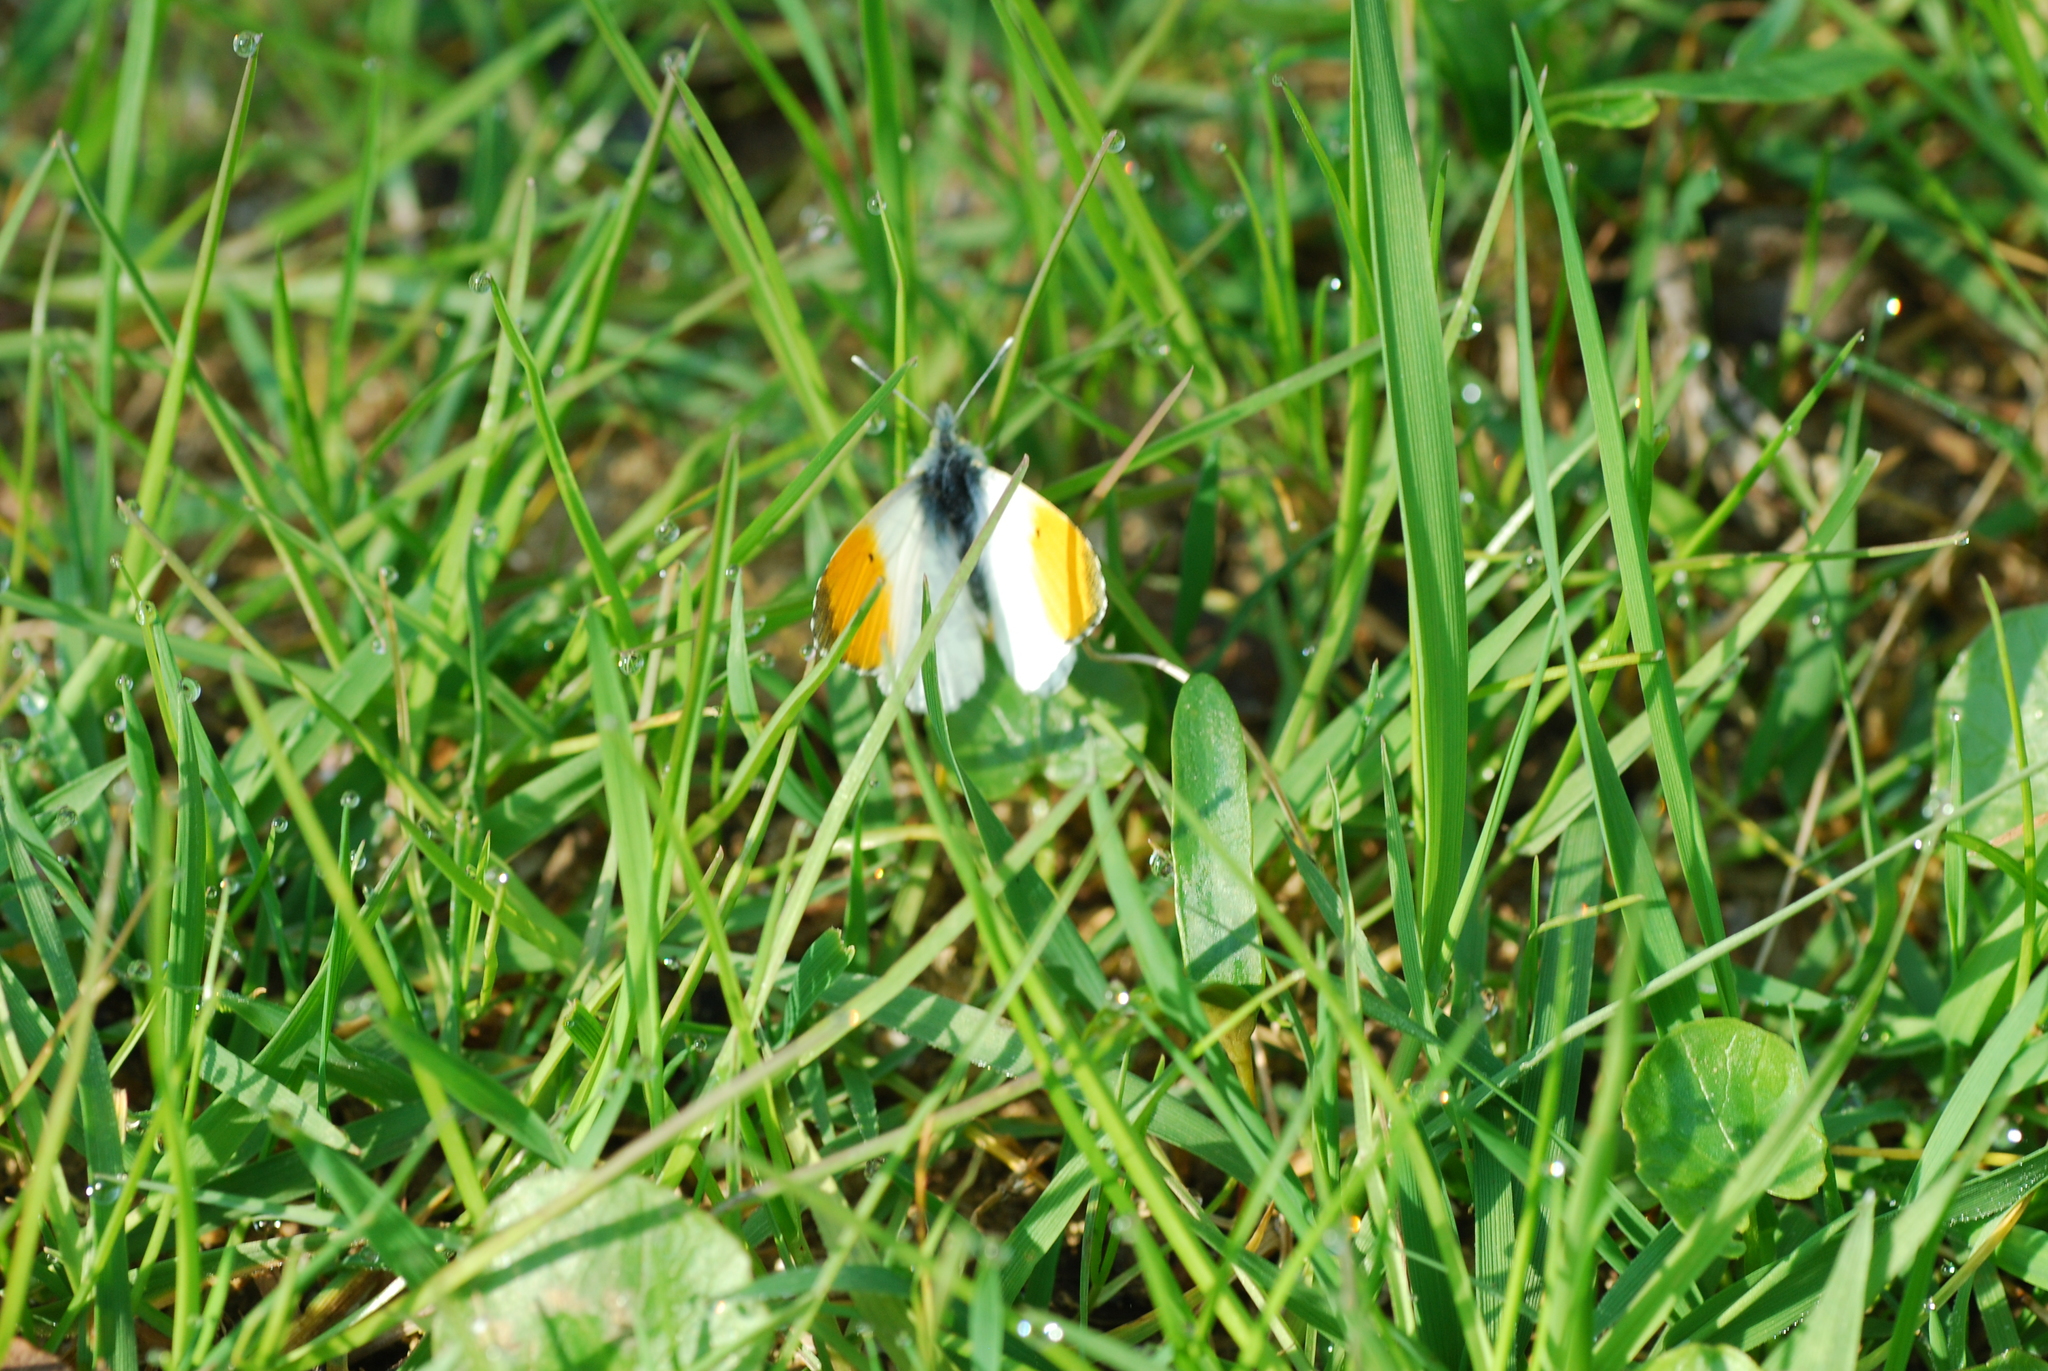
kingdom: Animalia
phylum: Arthropoda
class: Insecta
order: Lepidoptera
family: Pieridae
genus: Anthocharis
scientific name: Anthocharis cardamines
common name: Orange-tip
